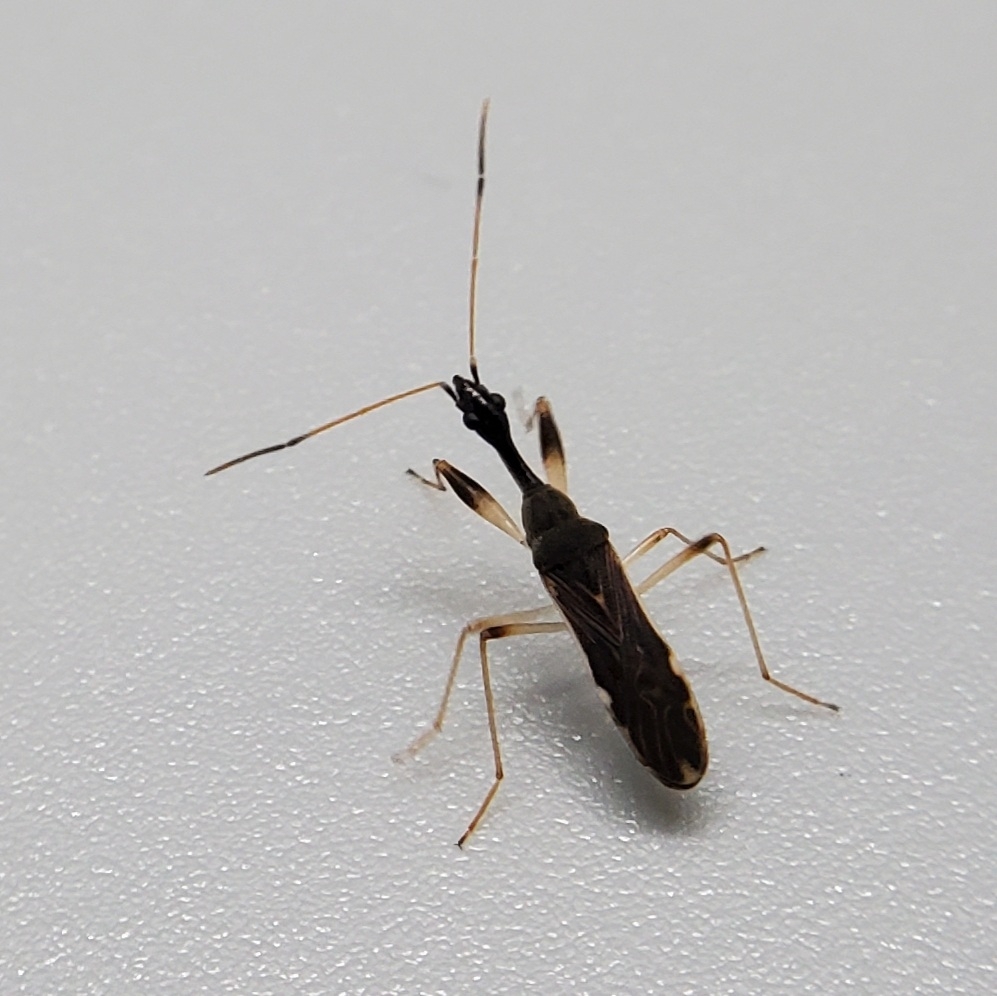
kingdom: Animalia
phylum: Arthropoda
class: Insecta
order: Hemiptera
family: Rhyparochromidae
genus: Myodocha
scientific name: Myodocha serripes
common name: Long-necked seed bug
